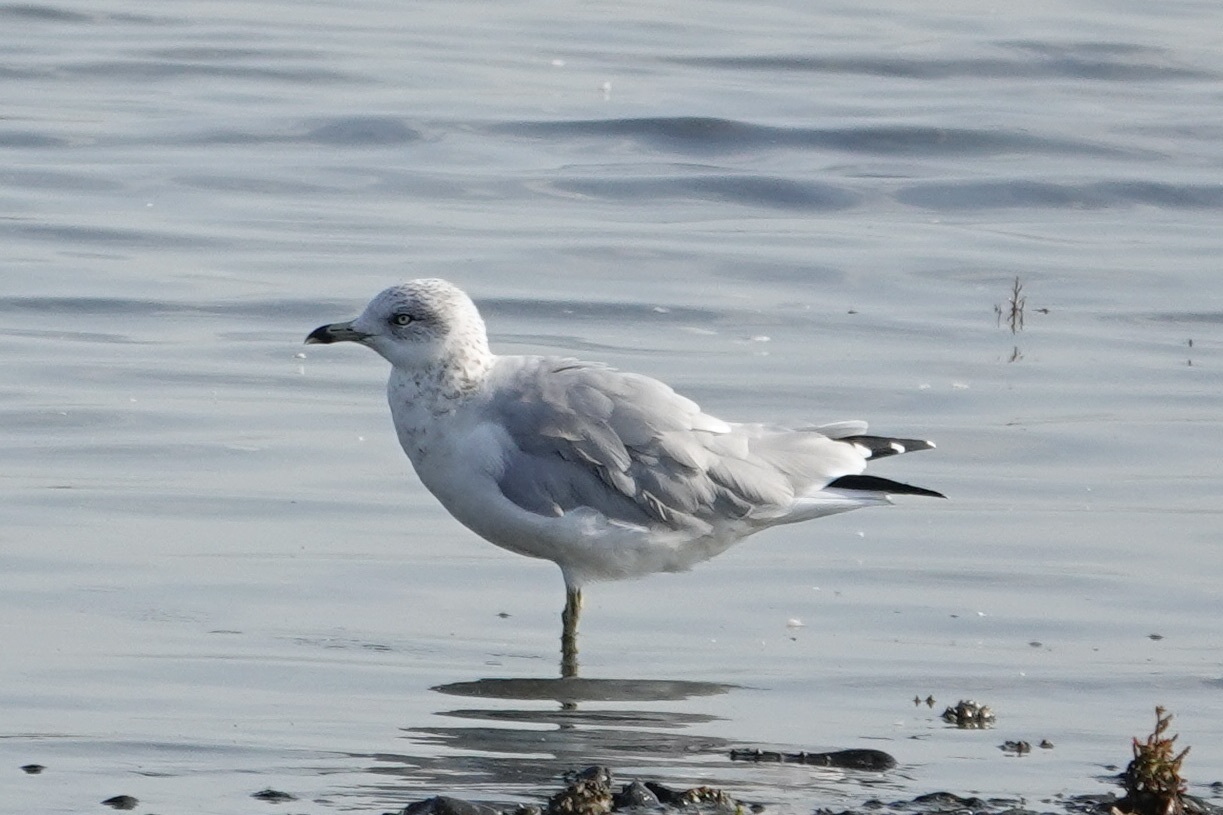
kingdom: Animalia
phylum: Chordata
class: Aves
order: Charadriiformes
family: Laridae
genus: Larus
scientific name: Larus delawarensis
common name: Ring-billed gull
